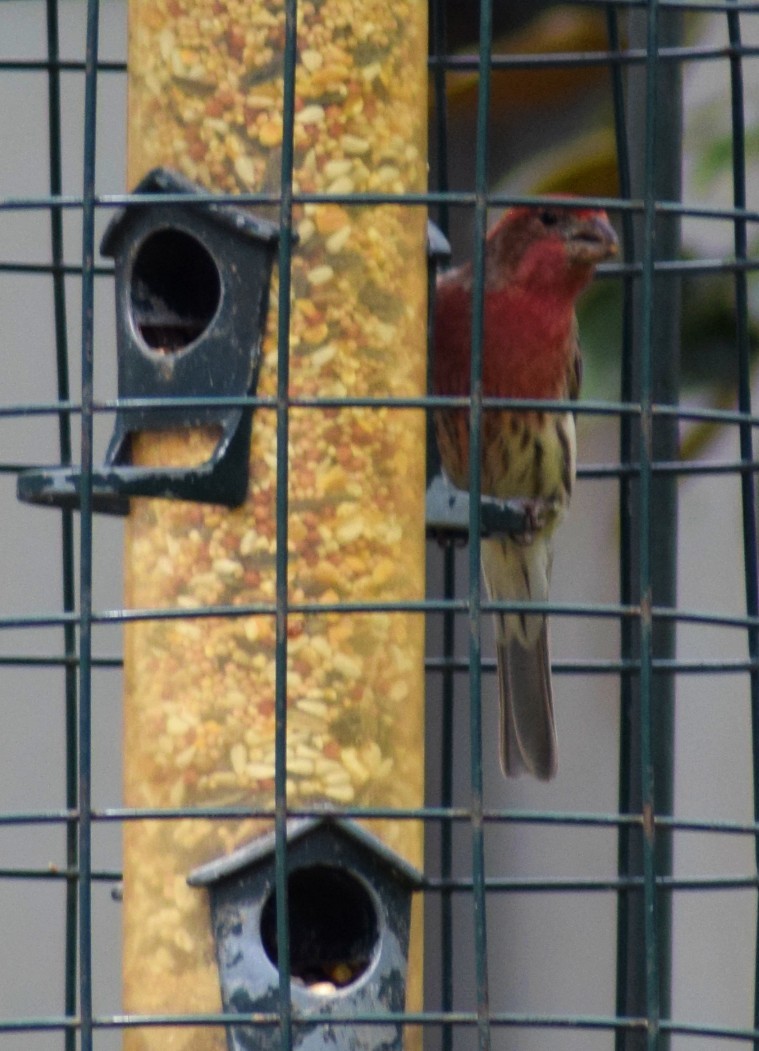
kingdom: Animalia
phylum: Chordata
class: Aves
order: Passeriformes
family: Fringillidae
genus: Haemorhous
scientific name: Haemorhous mexicanus
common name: House finch
